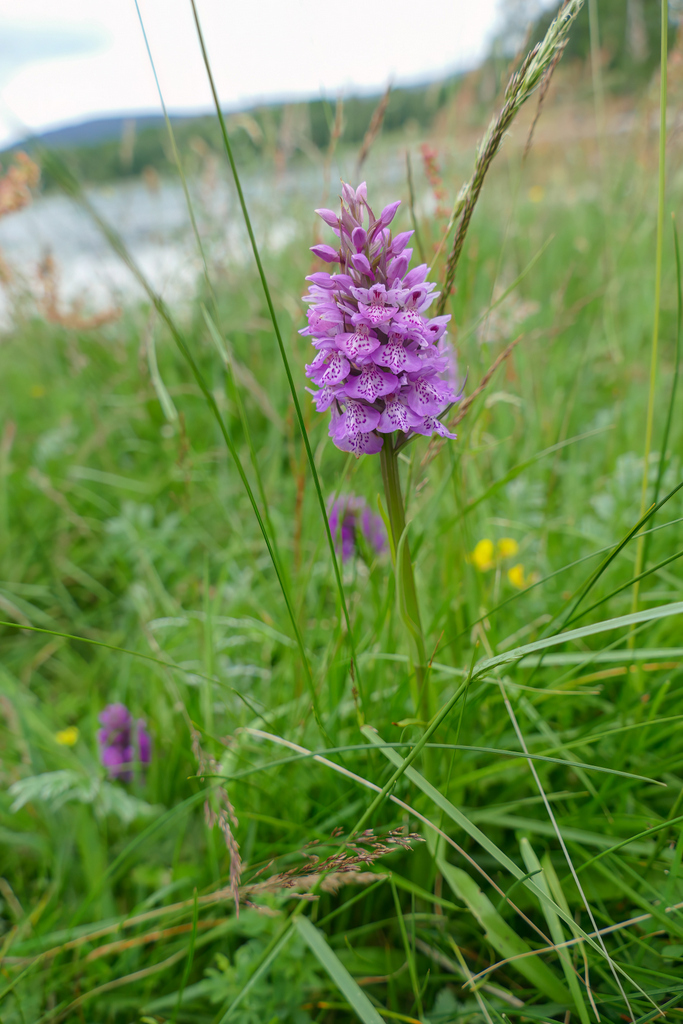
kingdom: Plantae
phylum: Tracheophyta
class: Liliopsida
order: Asparagales
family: Orchidaceae
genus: Dactylorhiza
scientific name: Dactylorhiza maculata
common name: Heath spotted-orchid
